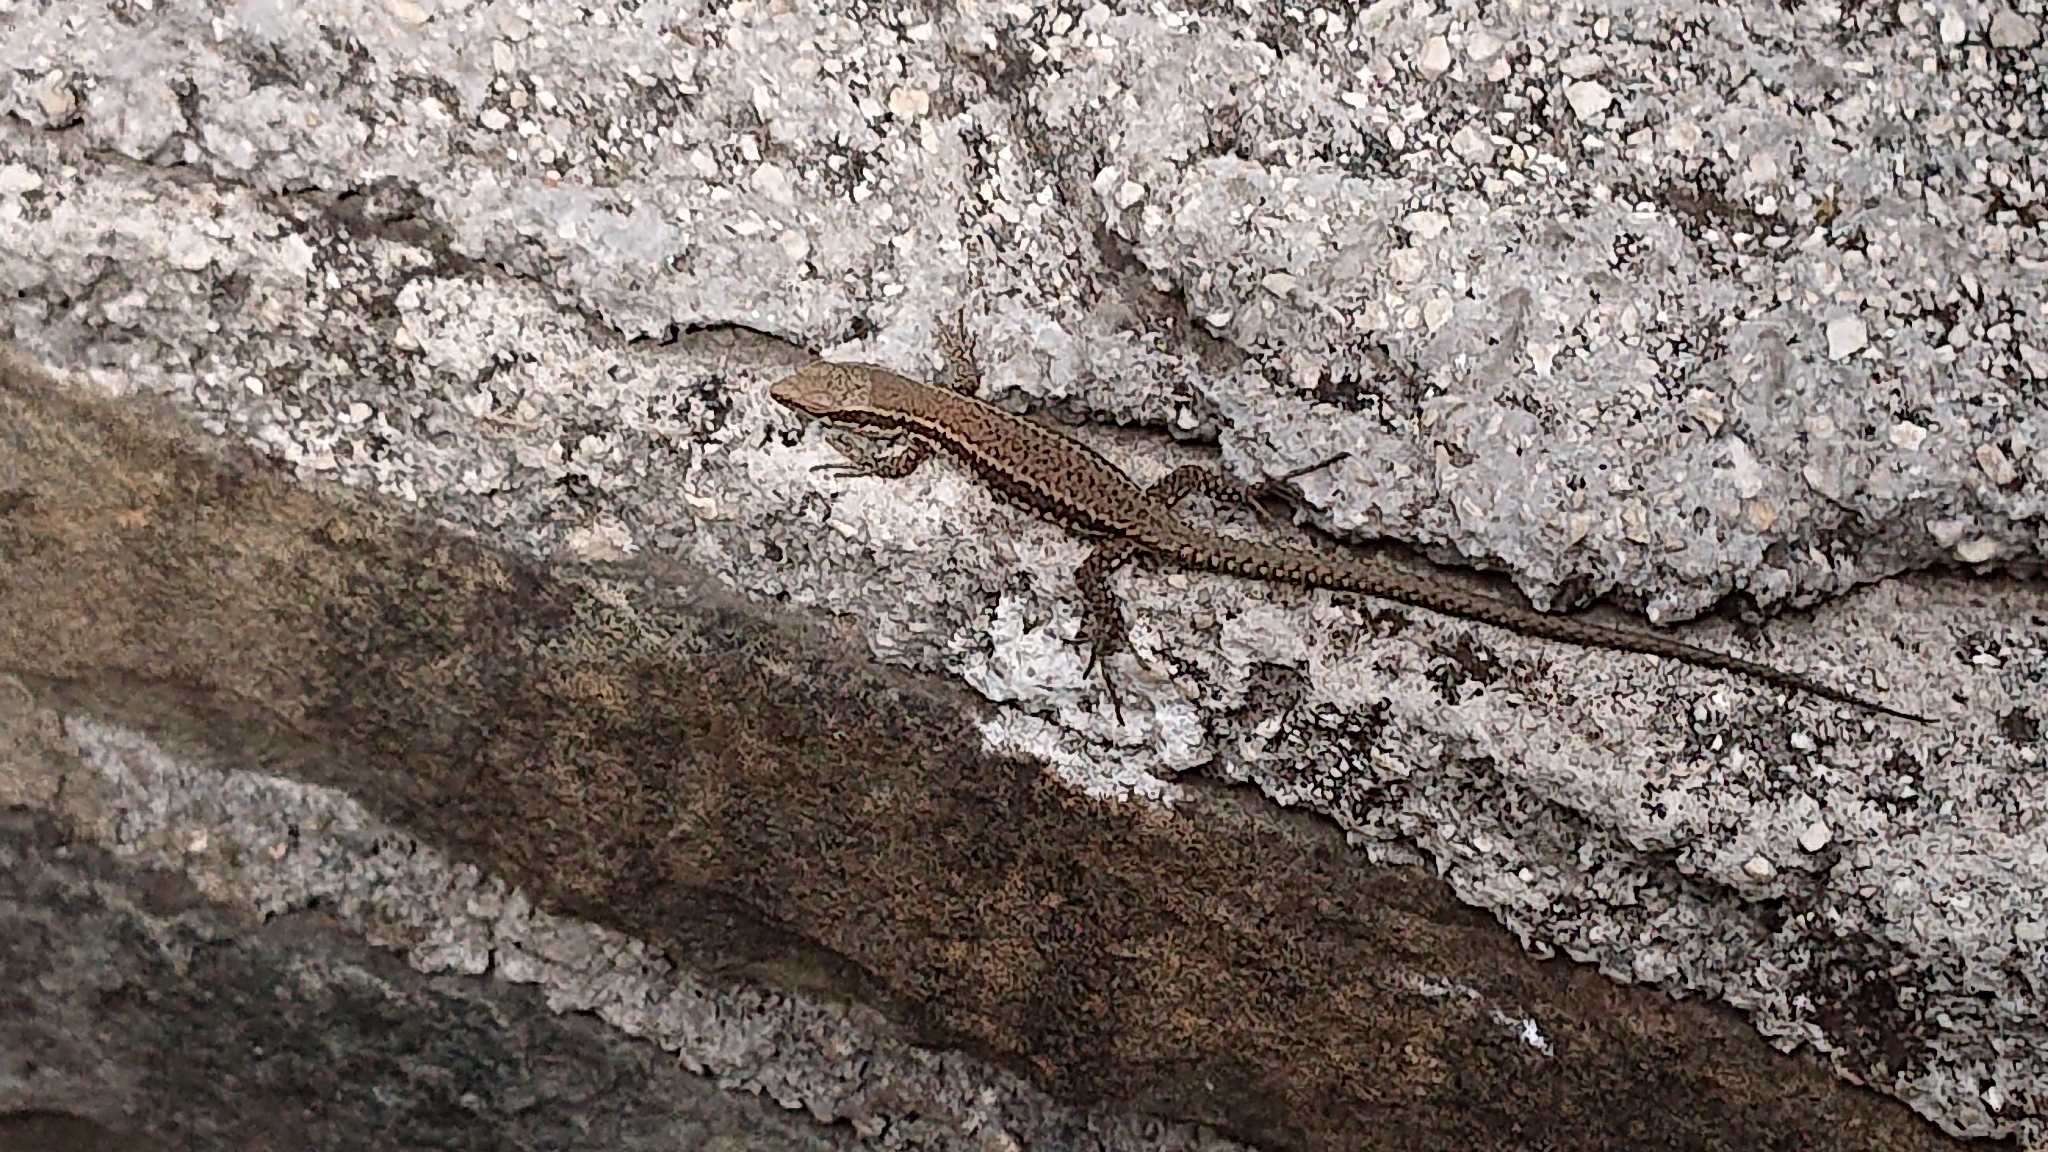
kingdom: Animalia
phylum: Chordata
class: Squamata
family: Lacertidae
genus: Podarcis
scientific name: Podarcis muralis
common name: Common wall lizard
